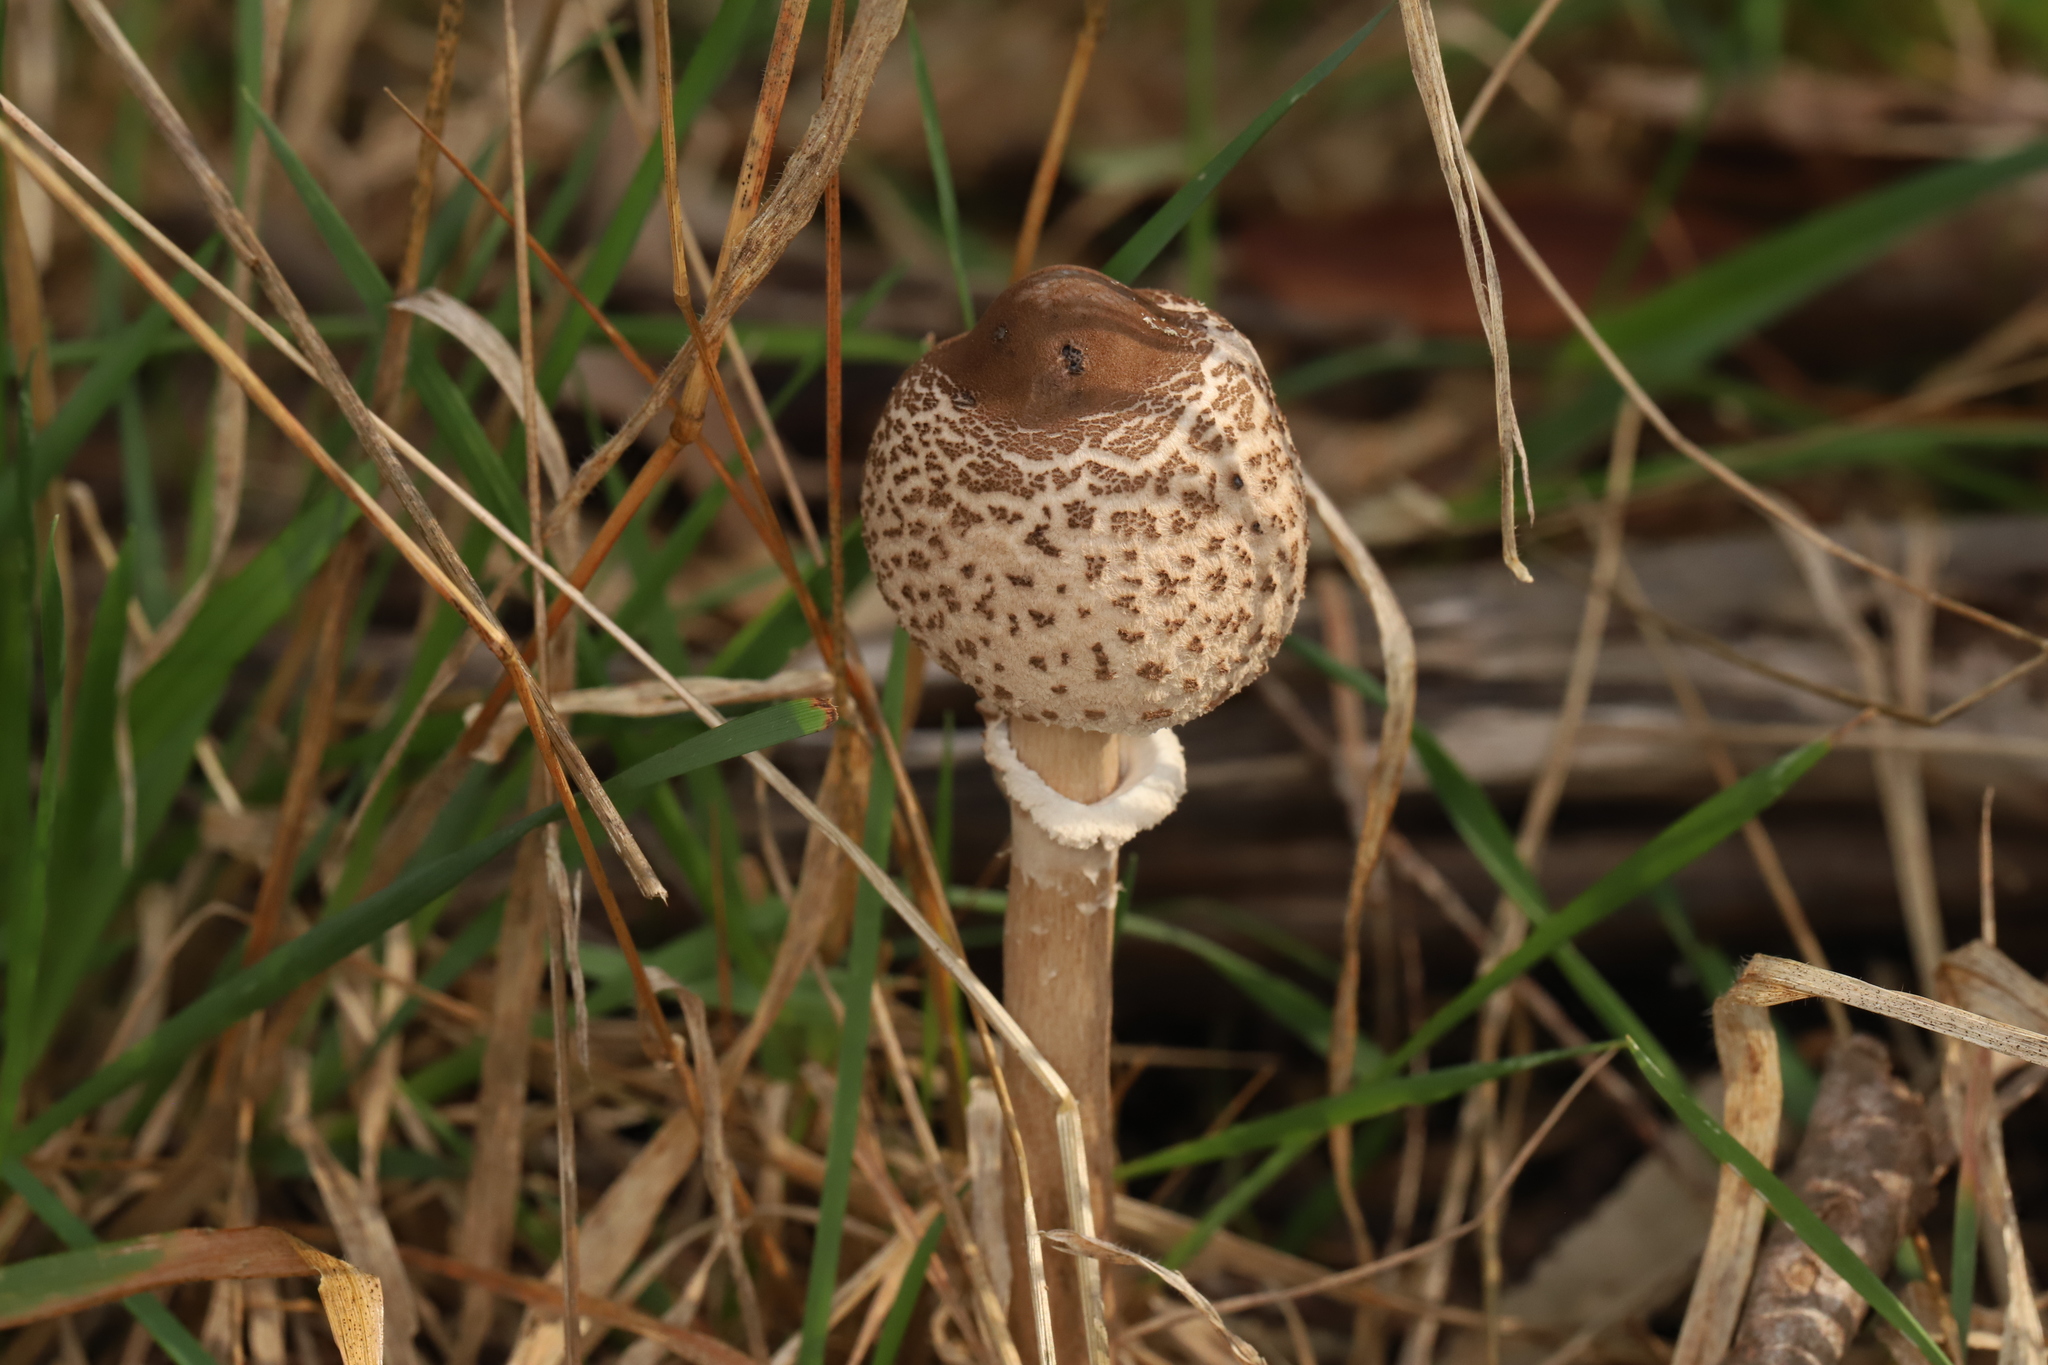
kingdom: Fungi
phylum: Basidiomycota
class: Agaricomycetes
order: Agaricales
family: Agaricaceae
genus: Macrolepiota
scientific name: Macrolepiota clelandii
